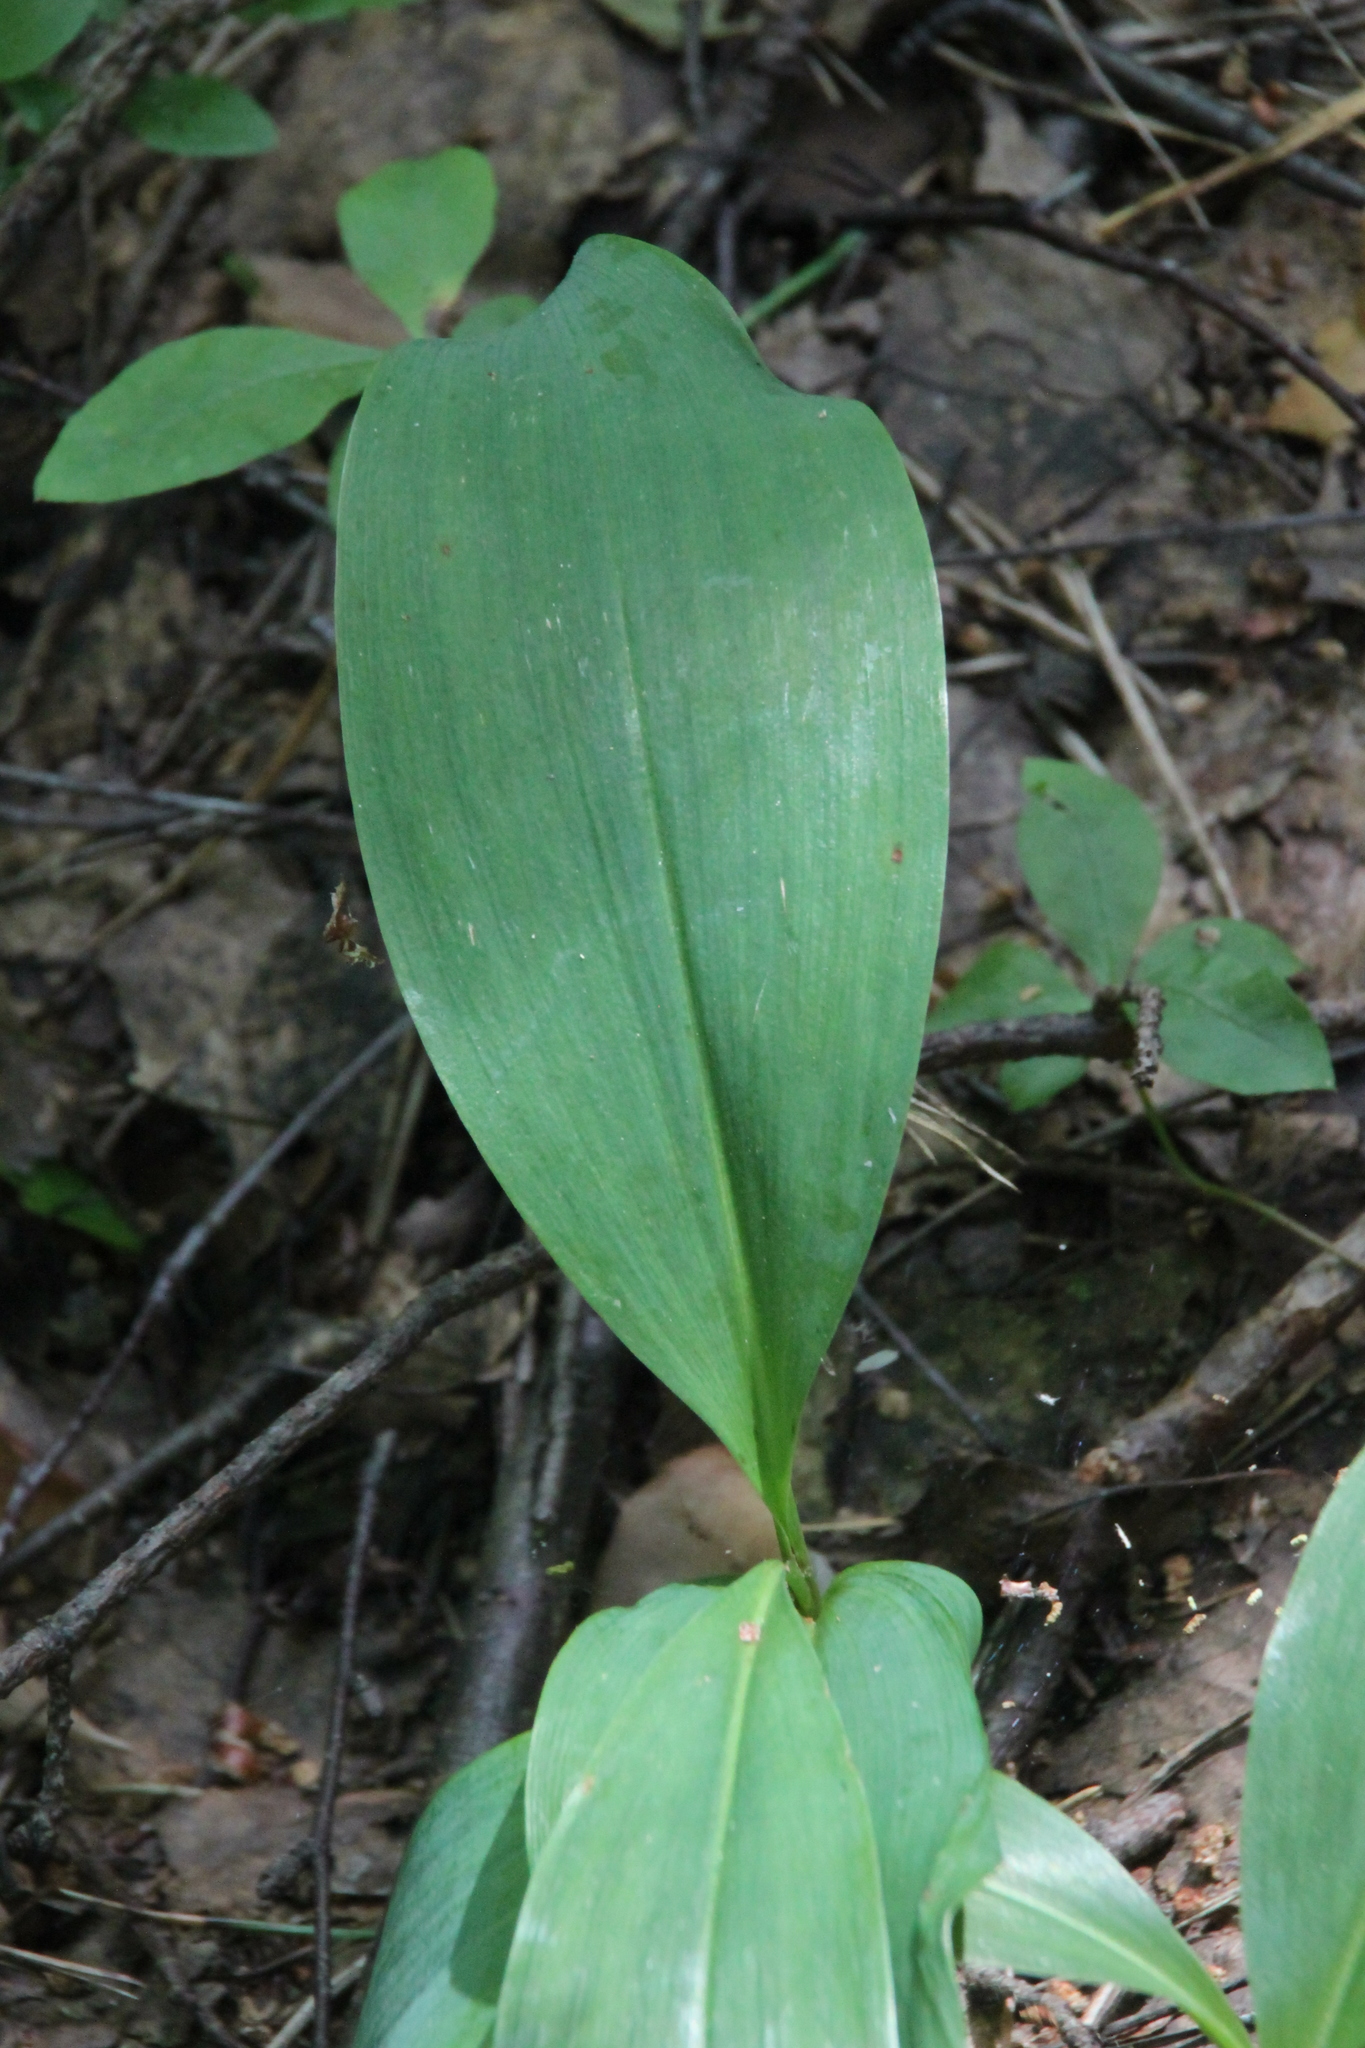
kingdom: Plantae
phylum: Tracheophyta
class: Liliopsida
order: Asparagales
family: Asparagaceae
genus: Convallaria
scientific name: Convallaria majalis
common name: Lily-of-the-valley
